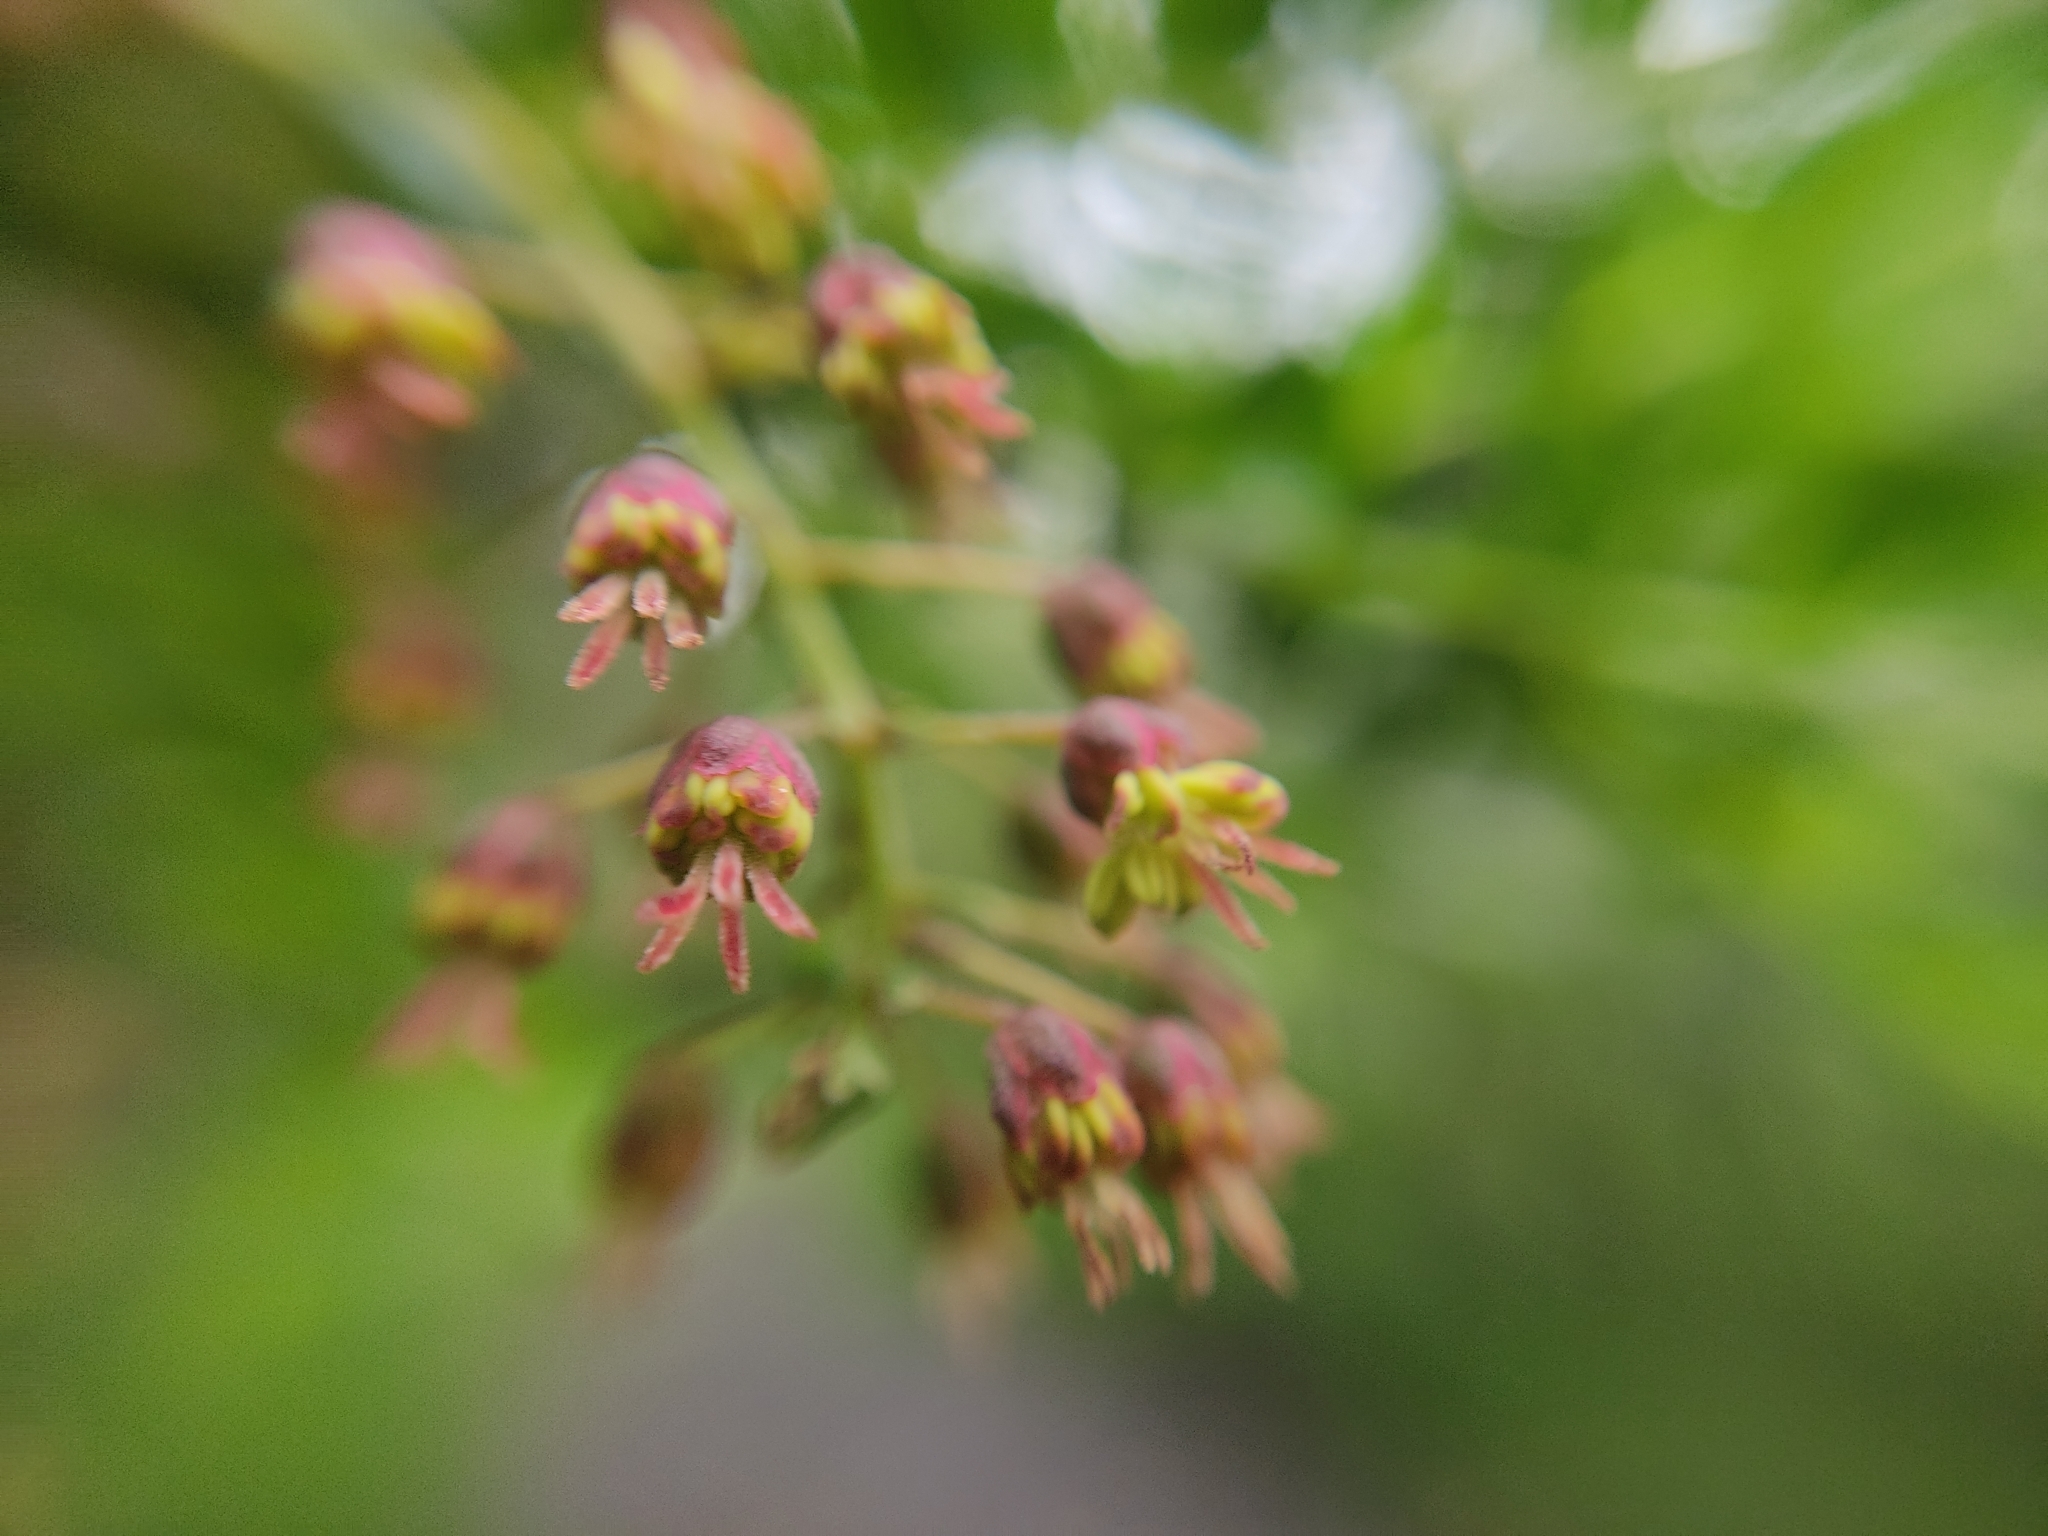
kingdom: Plantae
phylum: Tracheophyta
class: Magnoliopsida
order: Cucurbitales
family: Coriariaceae
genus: Coriaria
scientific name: Coriaria ruscifolia
